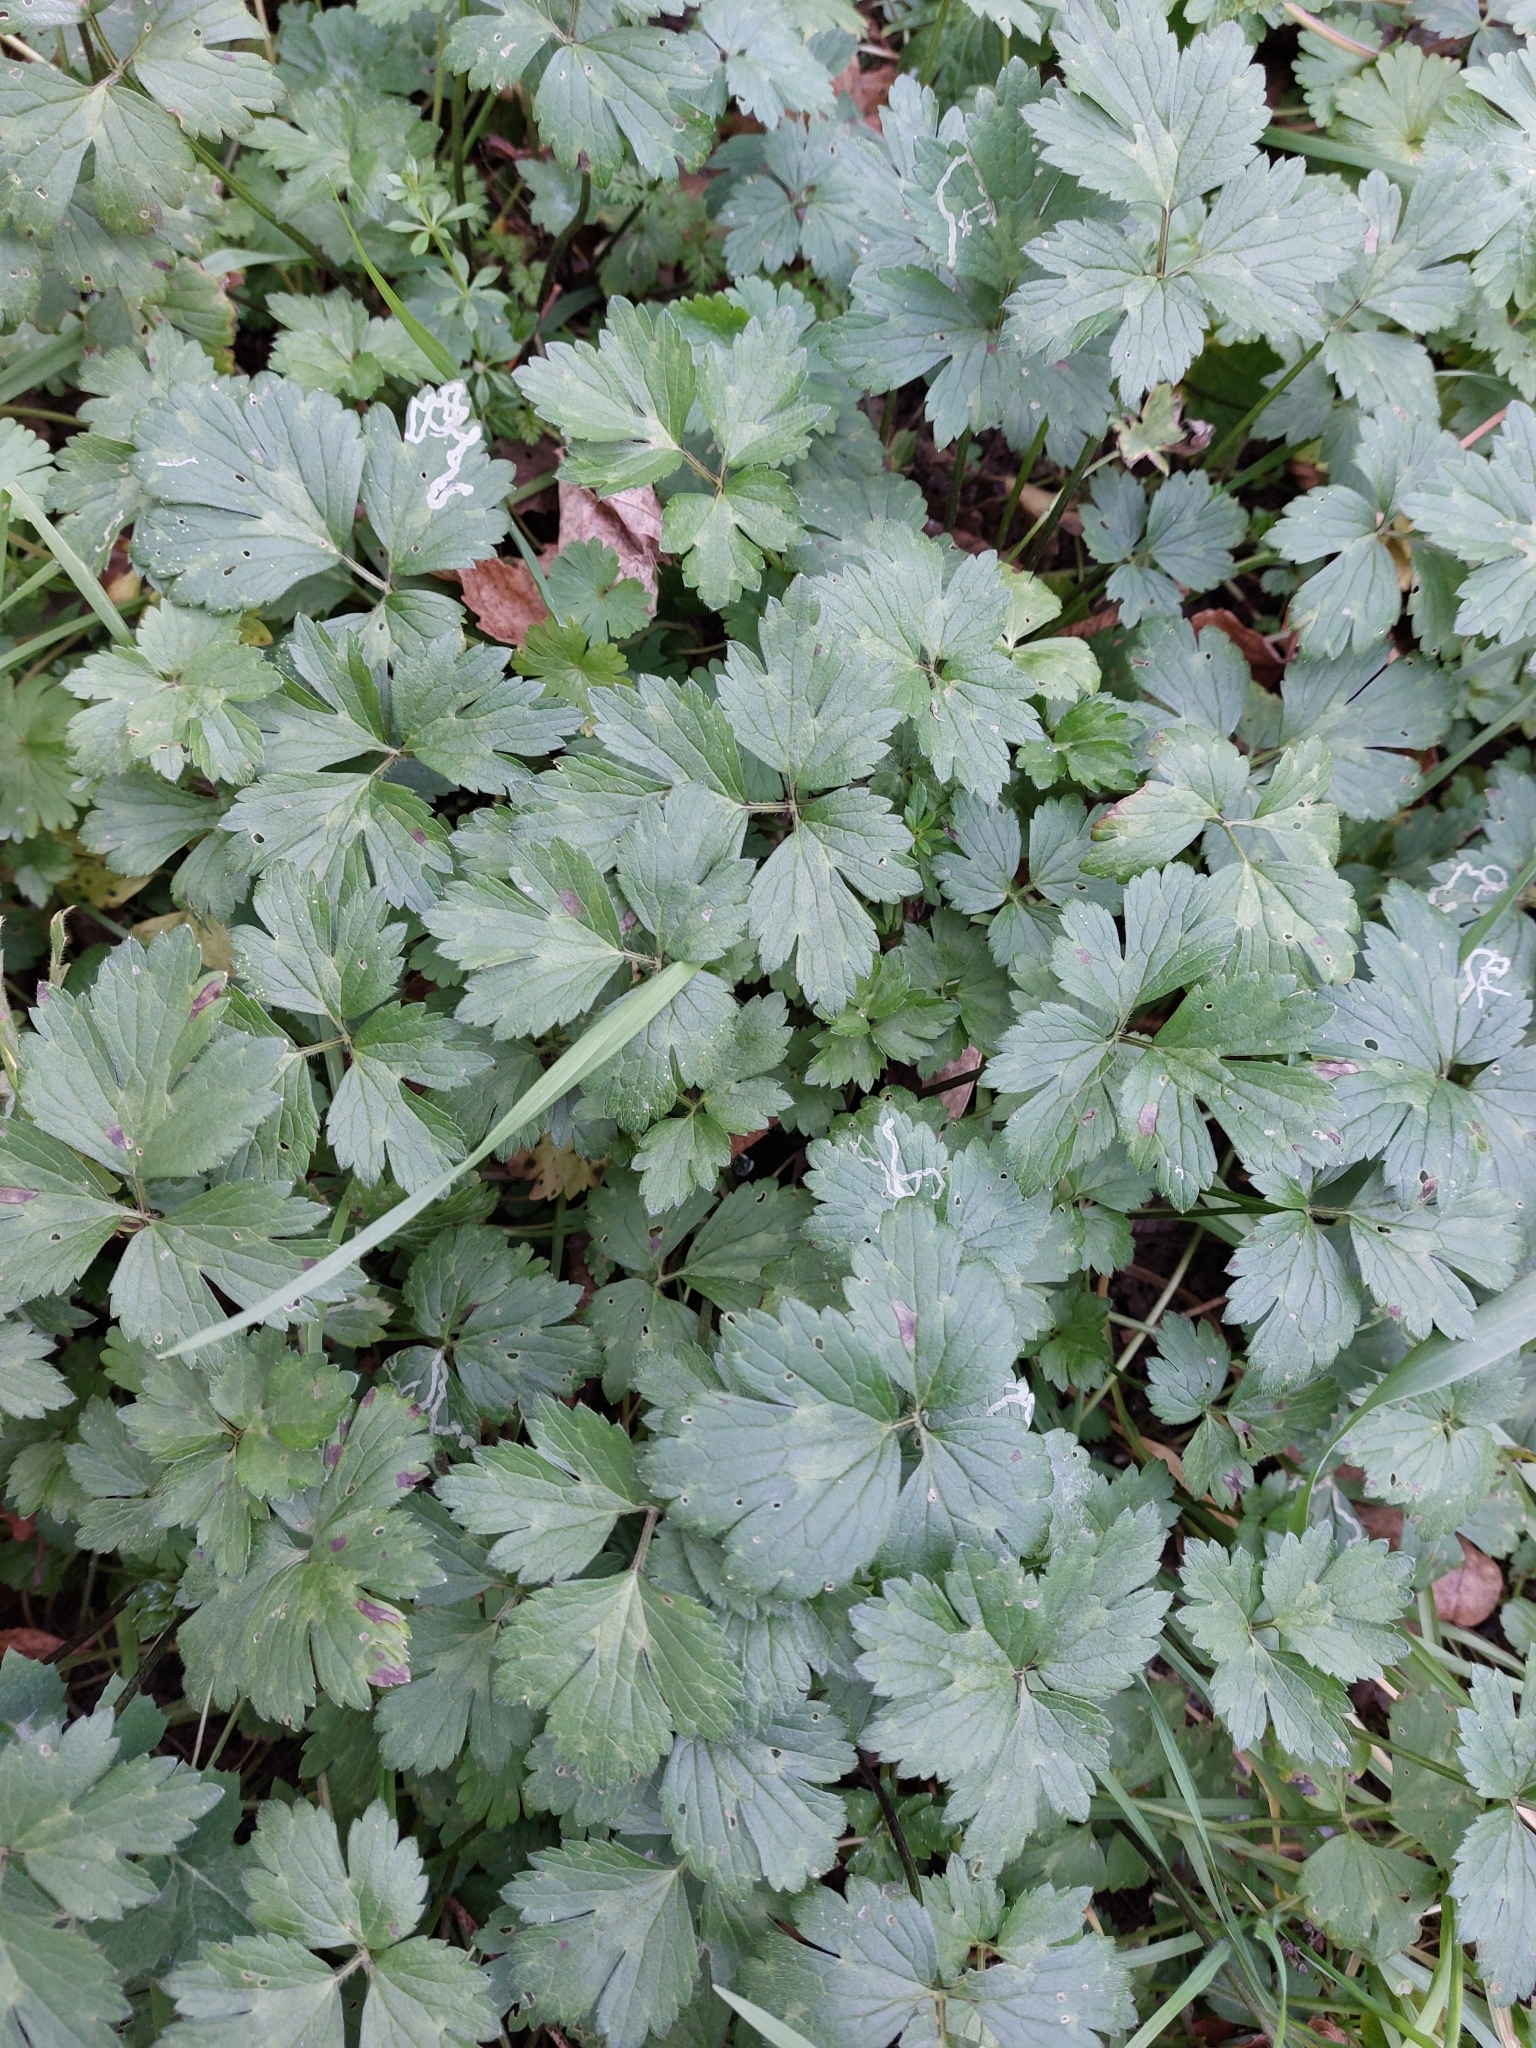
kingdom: Plantae
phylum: Tracheophyta
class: Magnoliopsida
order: Ranunculales
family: Ranunculaceae
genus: Ranunculus
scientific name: Ranunculus repens
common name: Creeping buttercup
